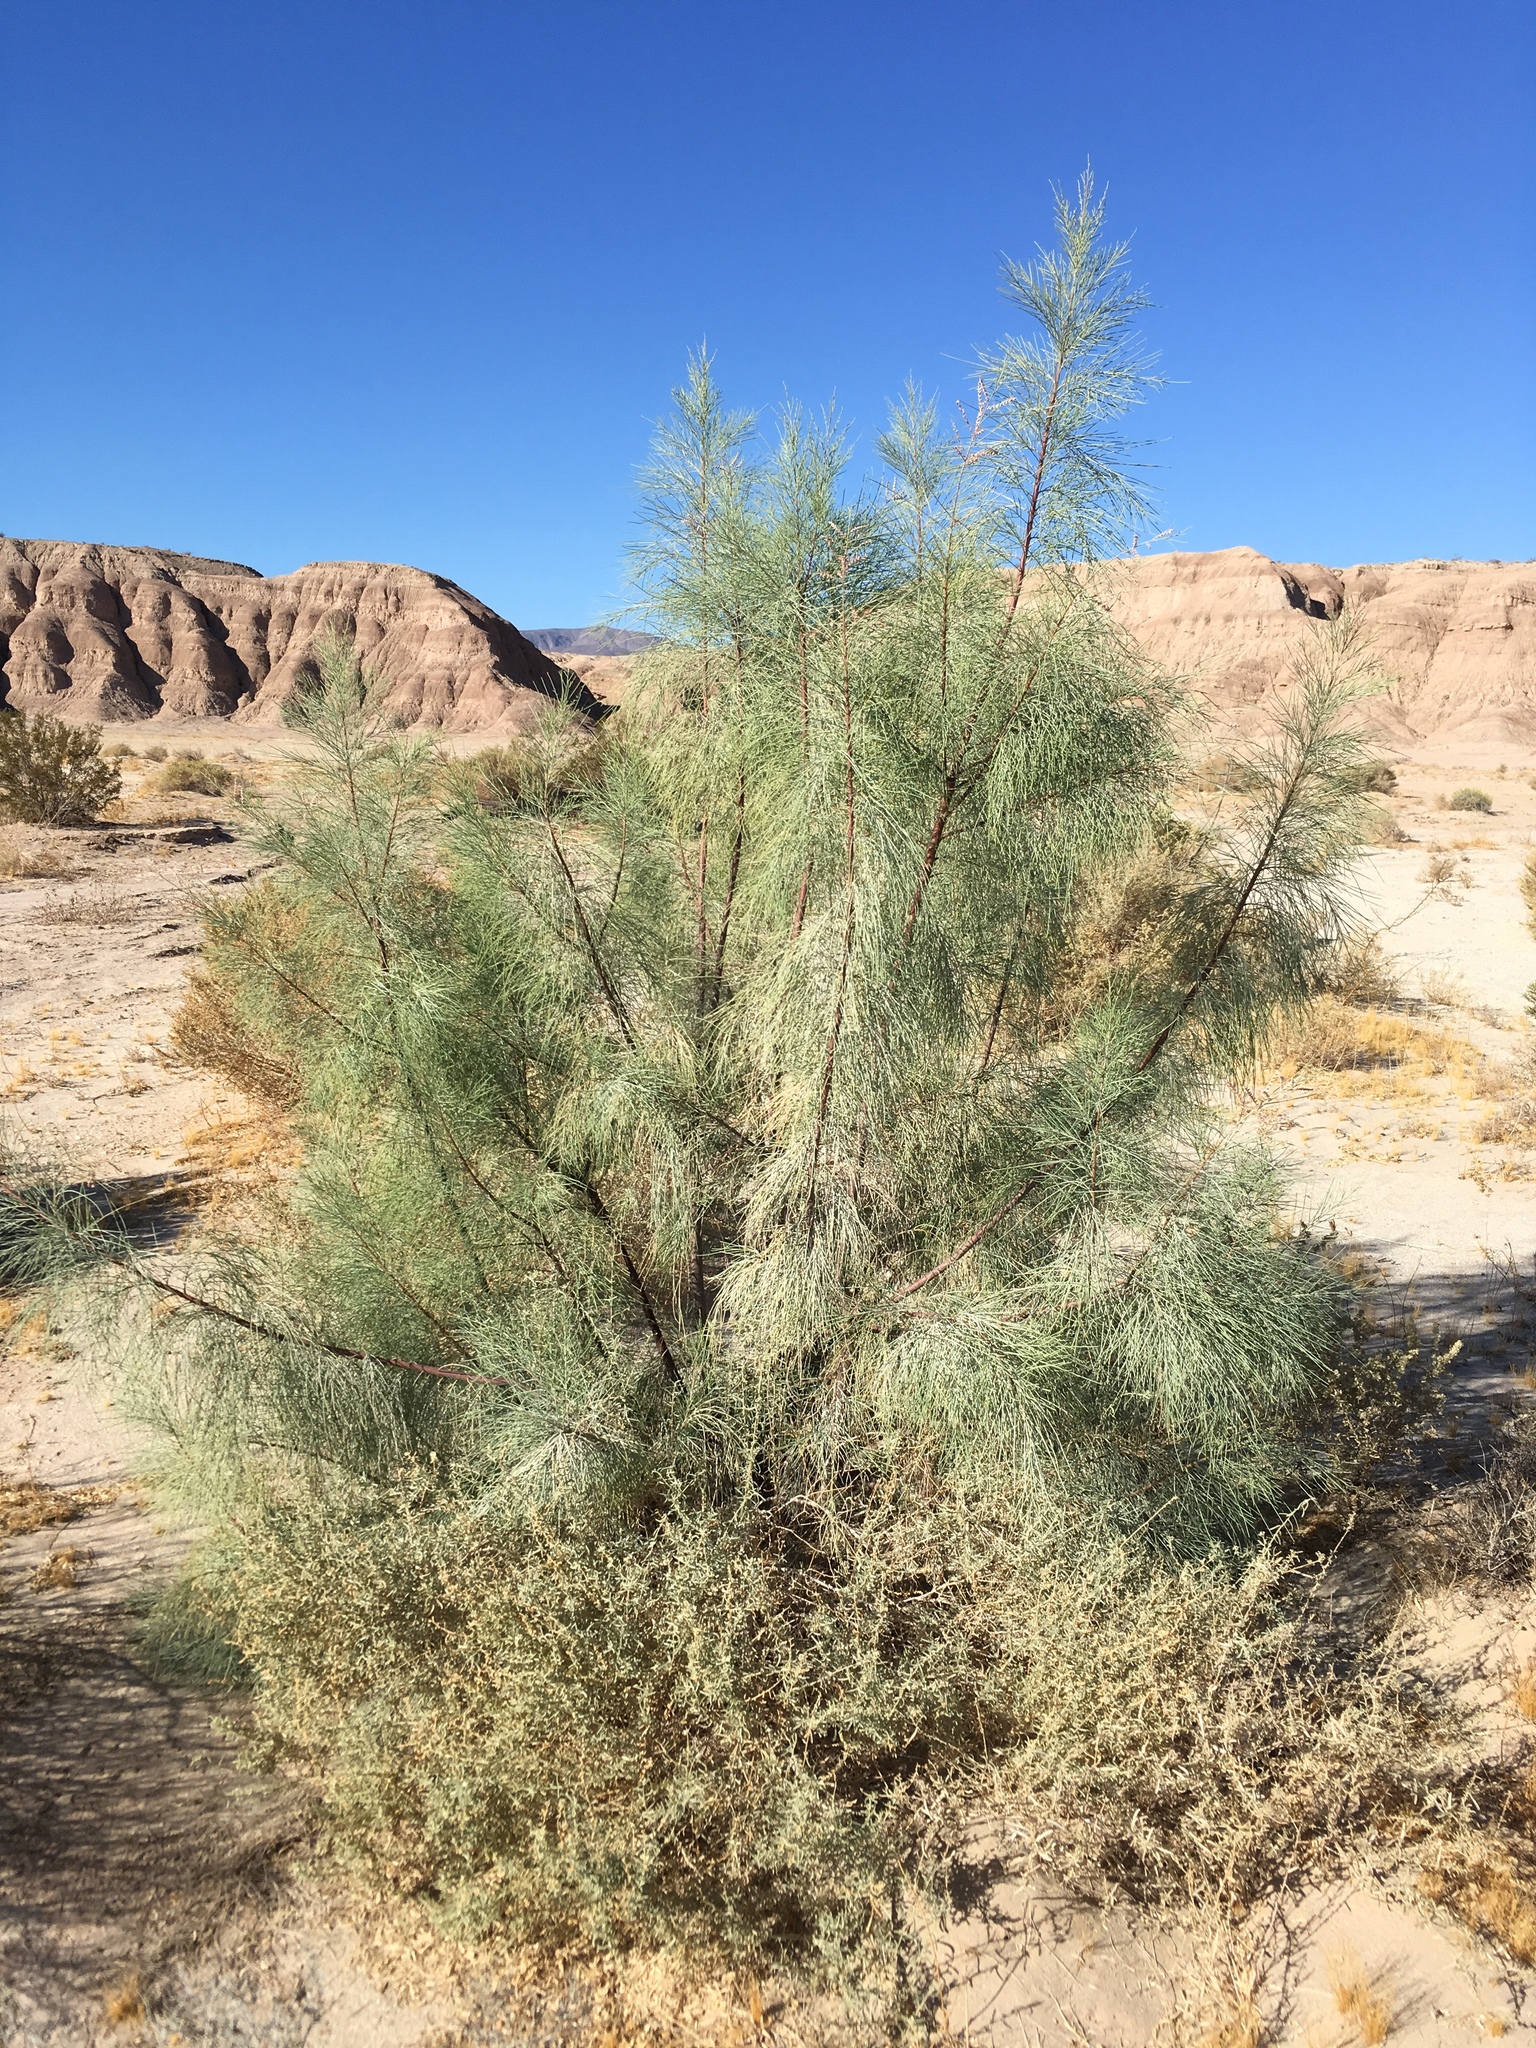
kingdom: Plantae
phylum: Tracheophyta
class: Magnoliopsida
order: Caryophyllales
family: Tamaricaceae
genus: Tamarix
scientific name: Tamarix aphylla
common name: Athel tamarisk
